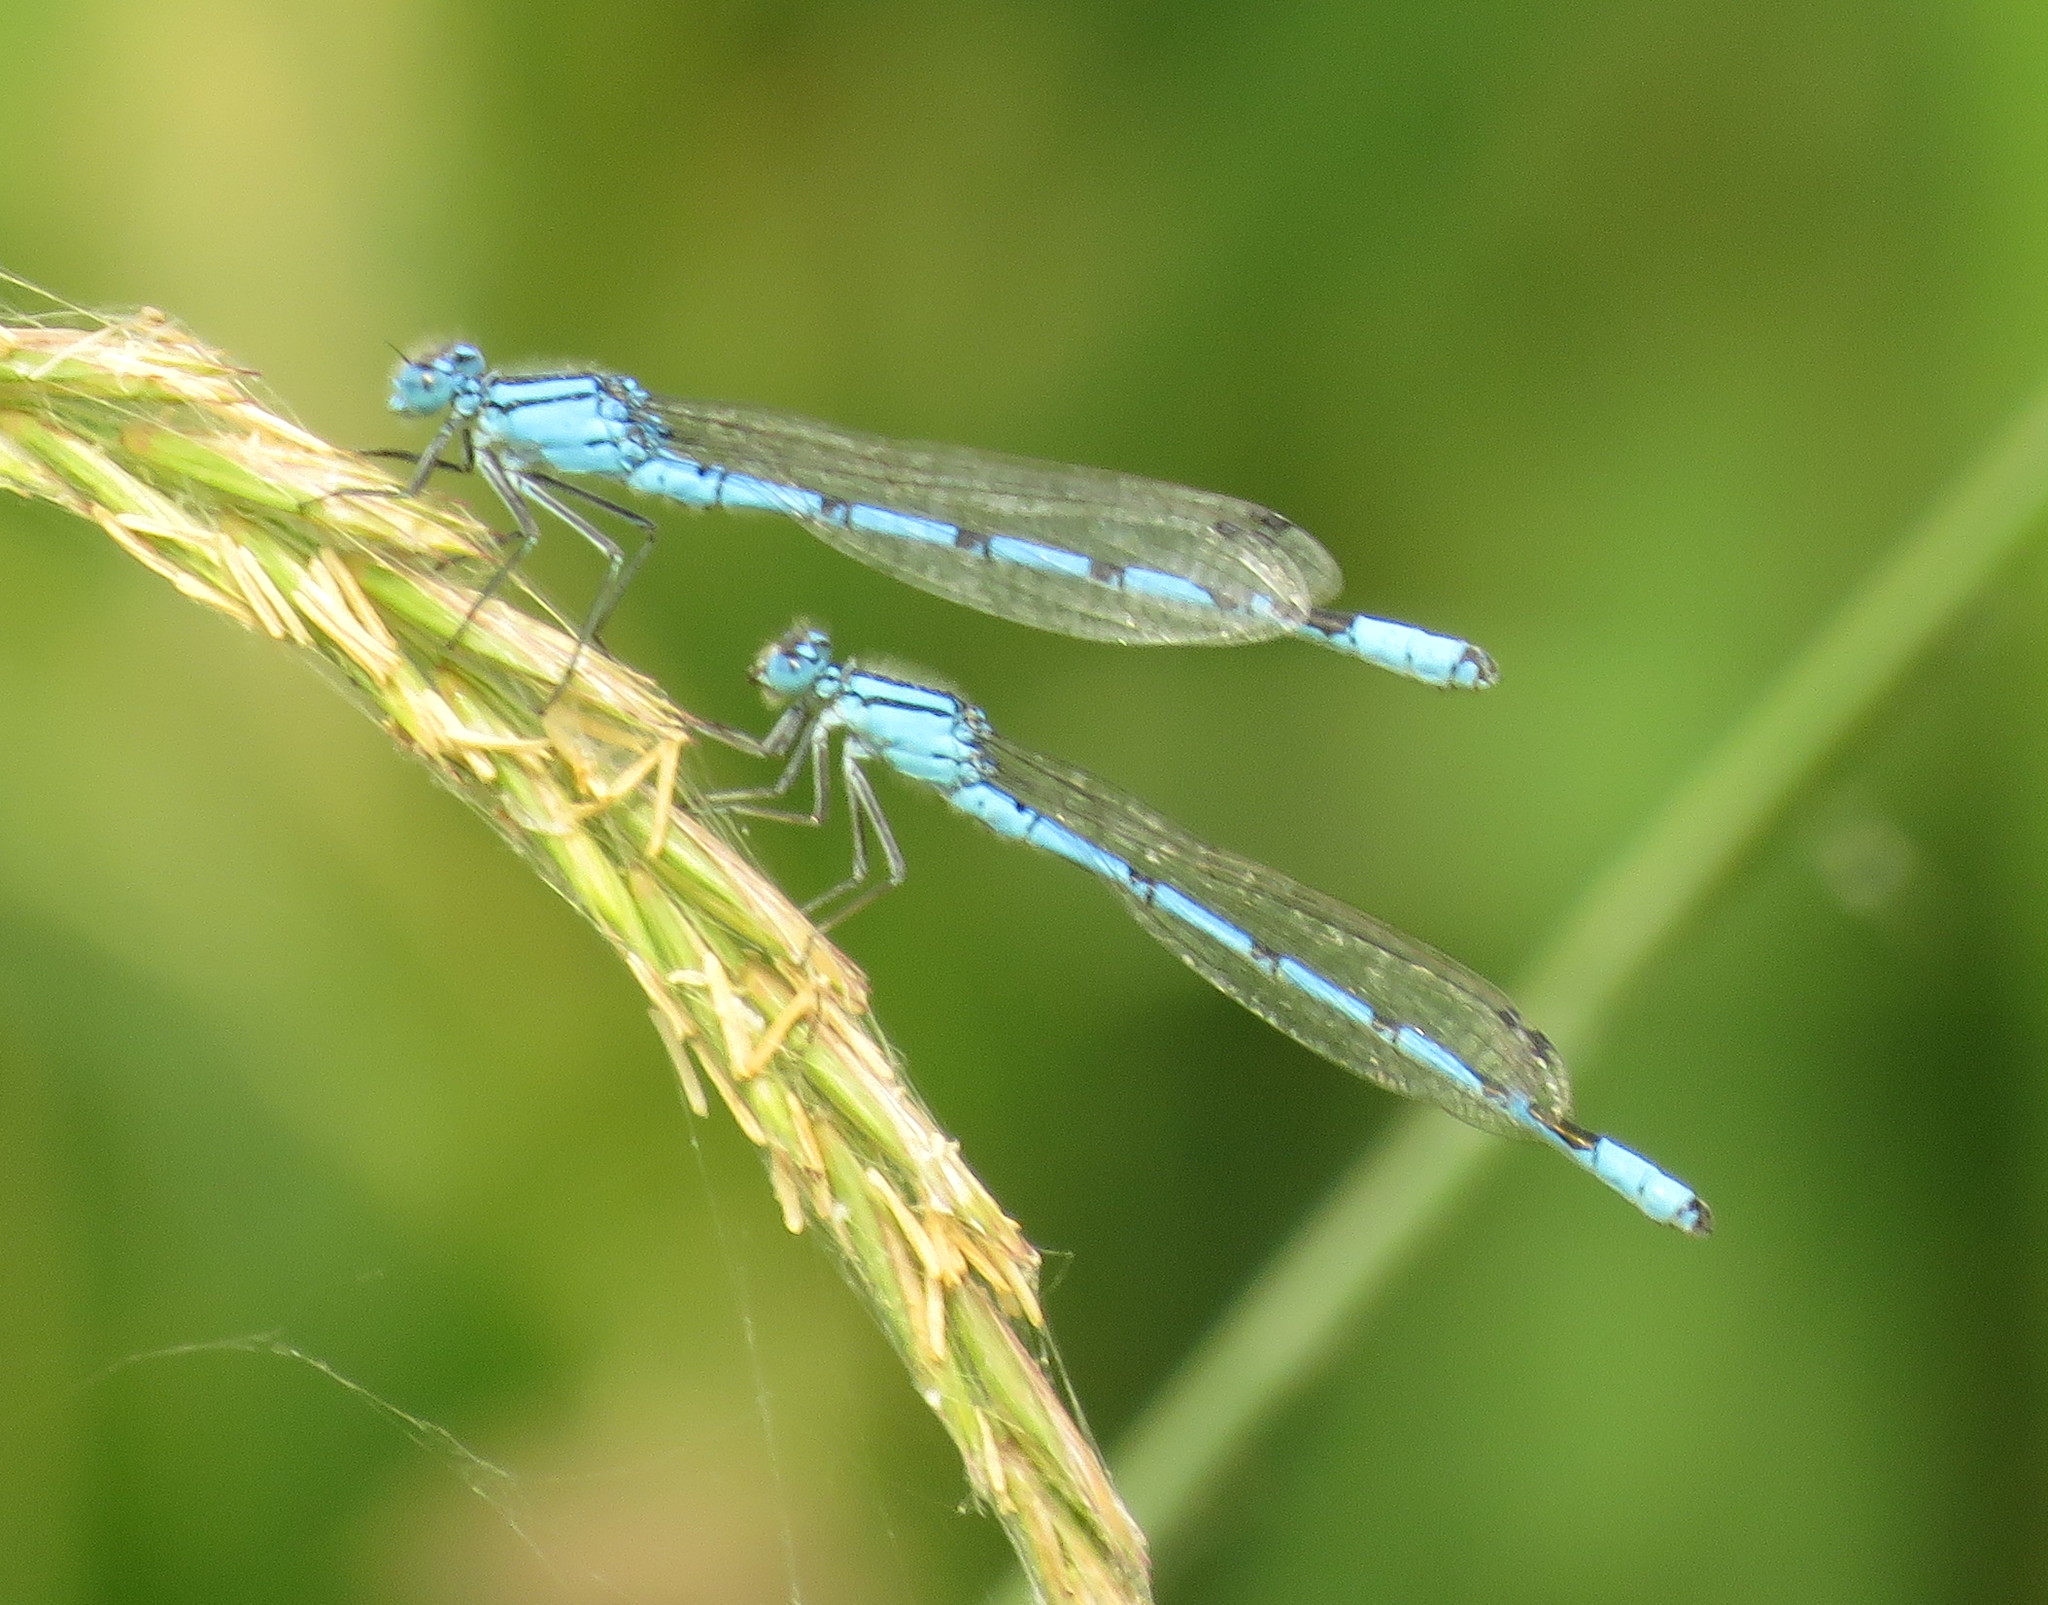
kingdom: Animalia
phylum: Arthropoda
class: Insecta
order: Odonata
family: Coenagrionidae
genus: Enallagma
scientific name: Enallagma cyathigerum
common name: Common blue damselfly
